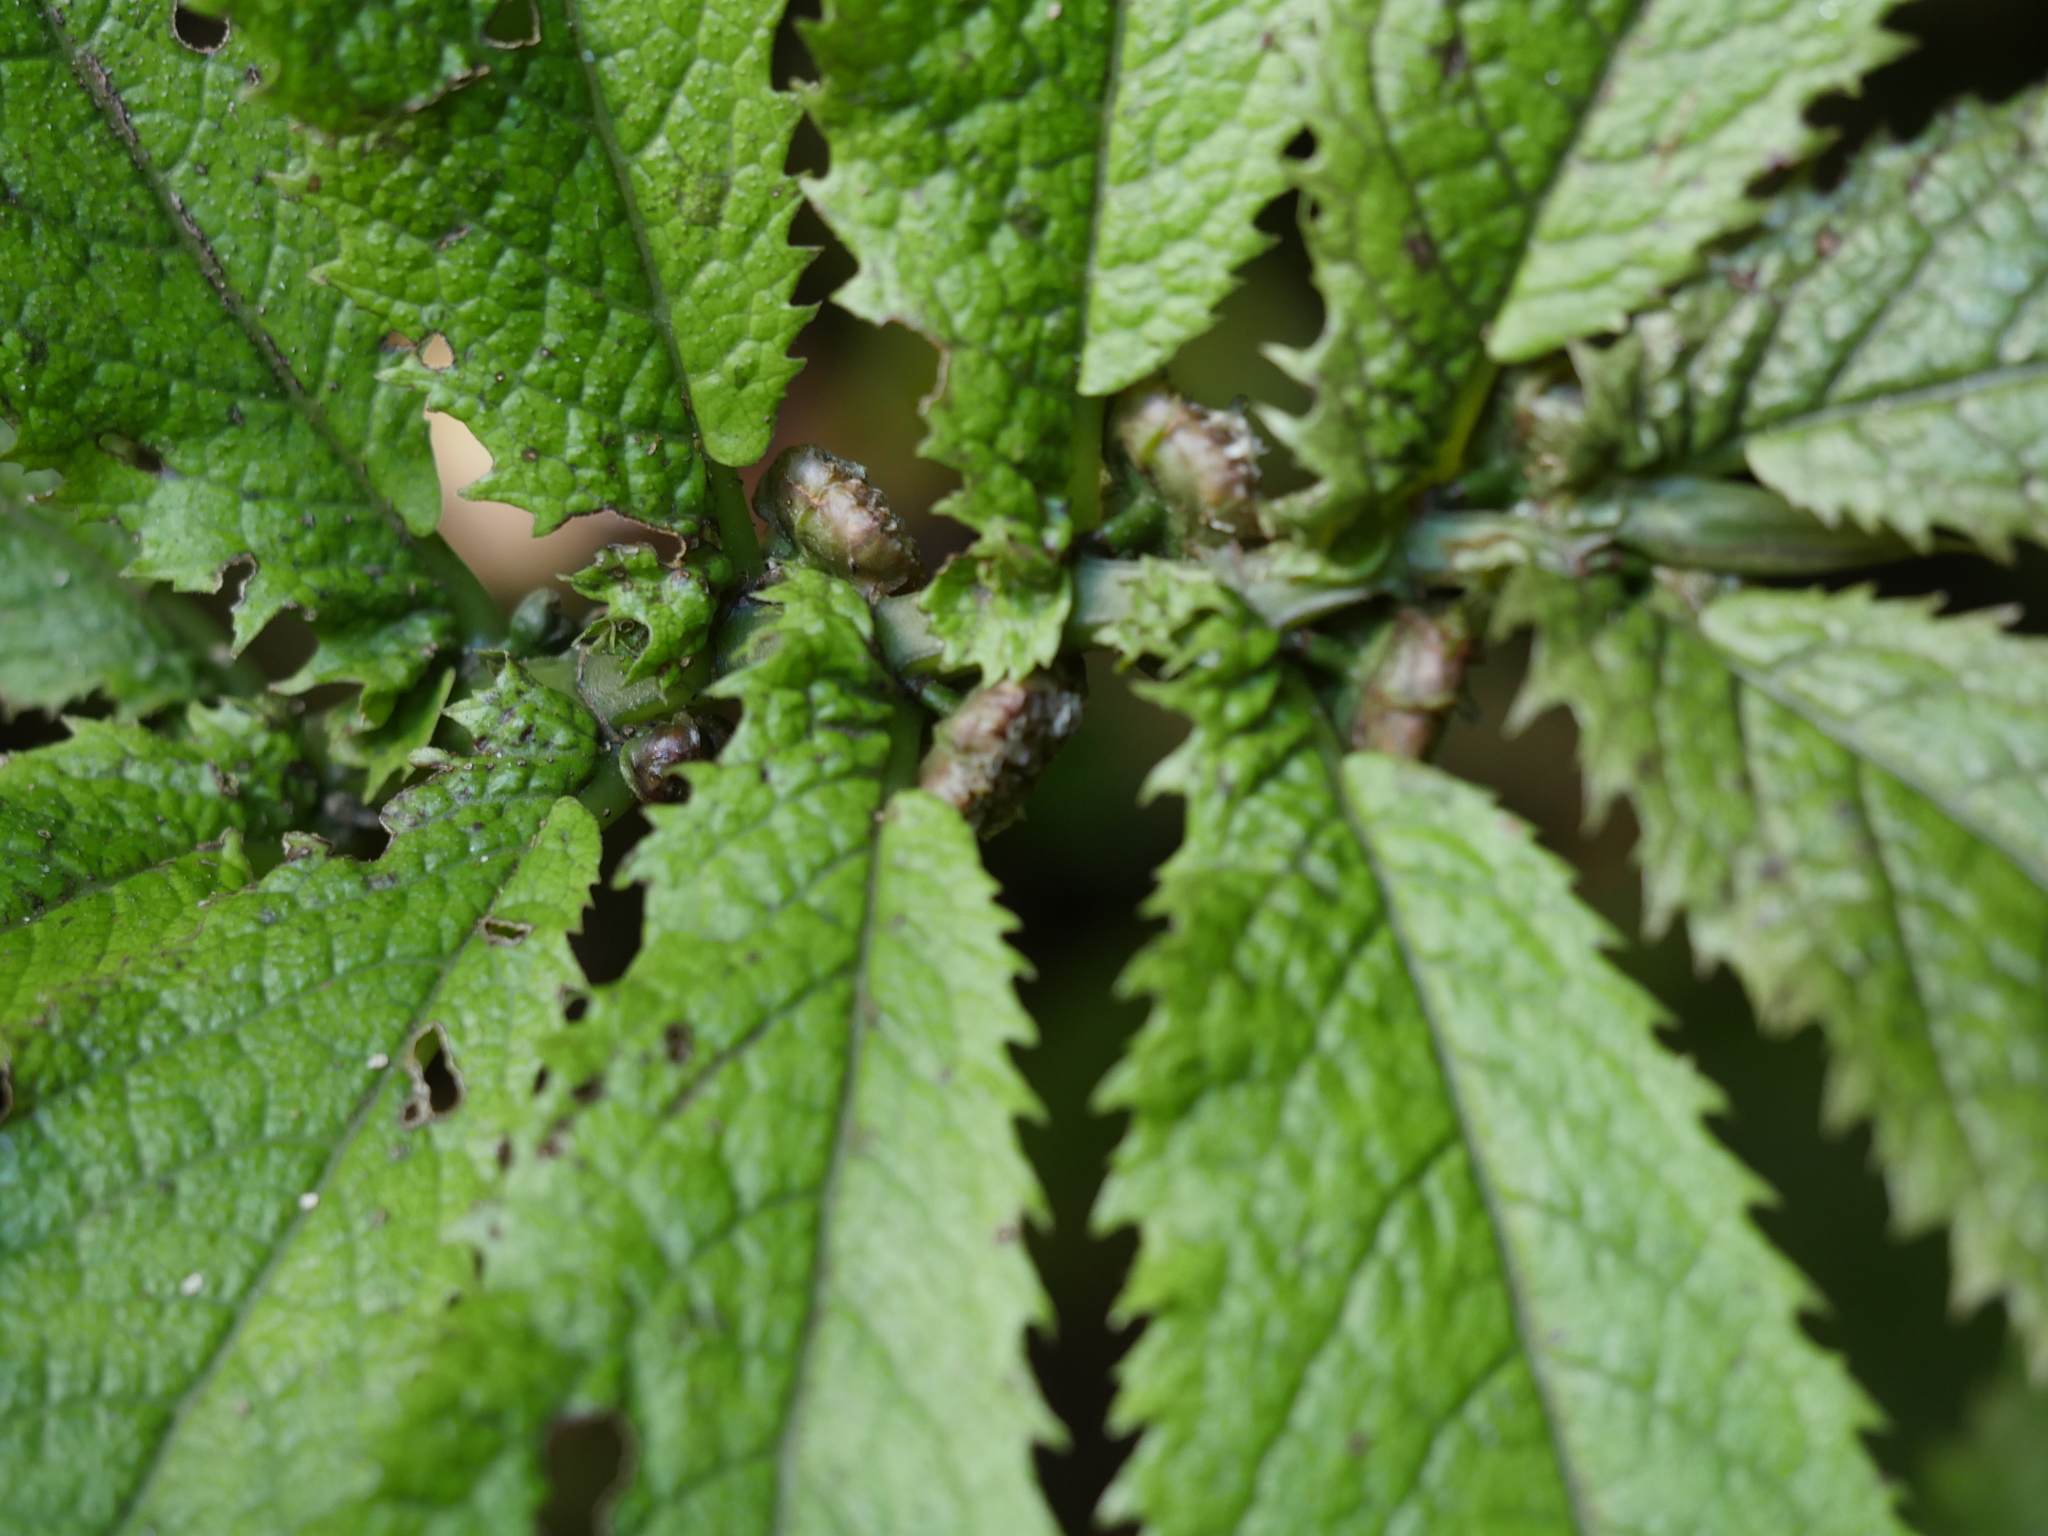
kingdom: Plantae
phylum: Tracheophyta
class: Magnoliopsida
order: Rosales
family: Urticaceae
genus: Elatostema
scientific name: Elatostema rugosum
